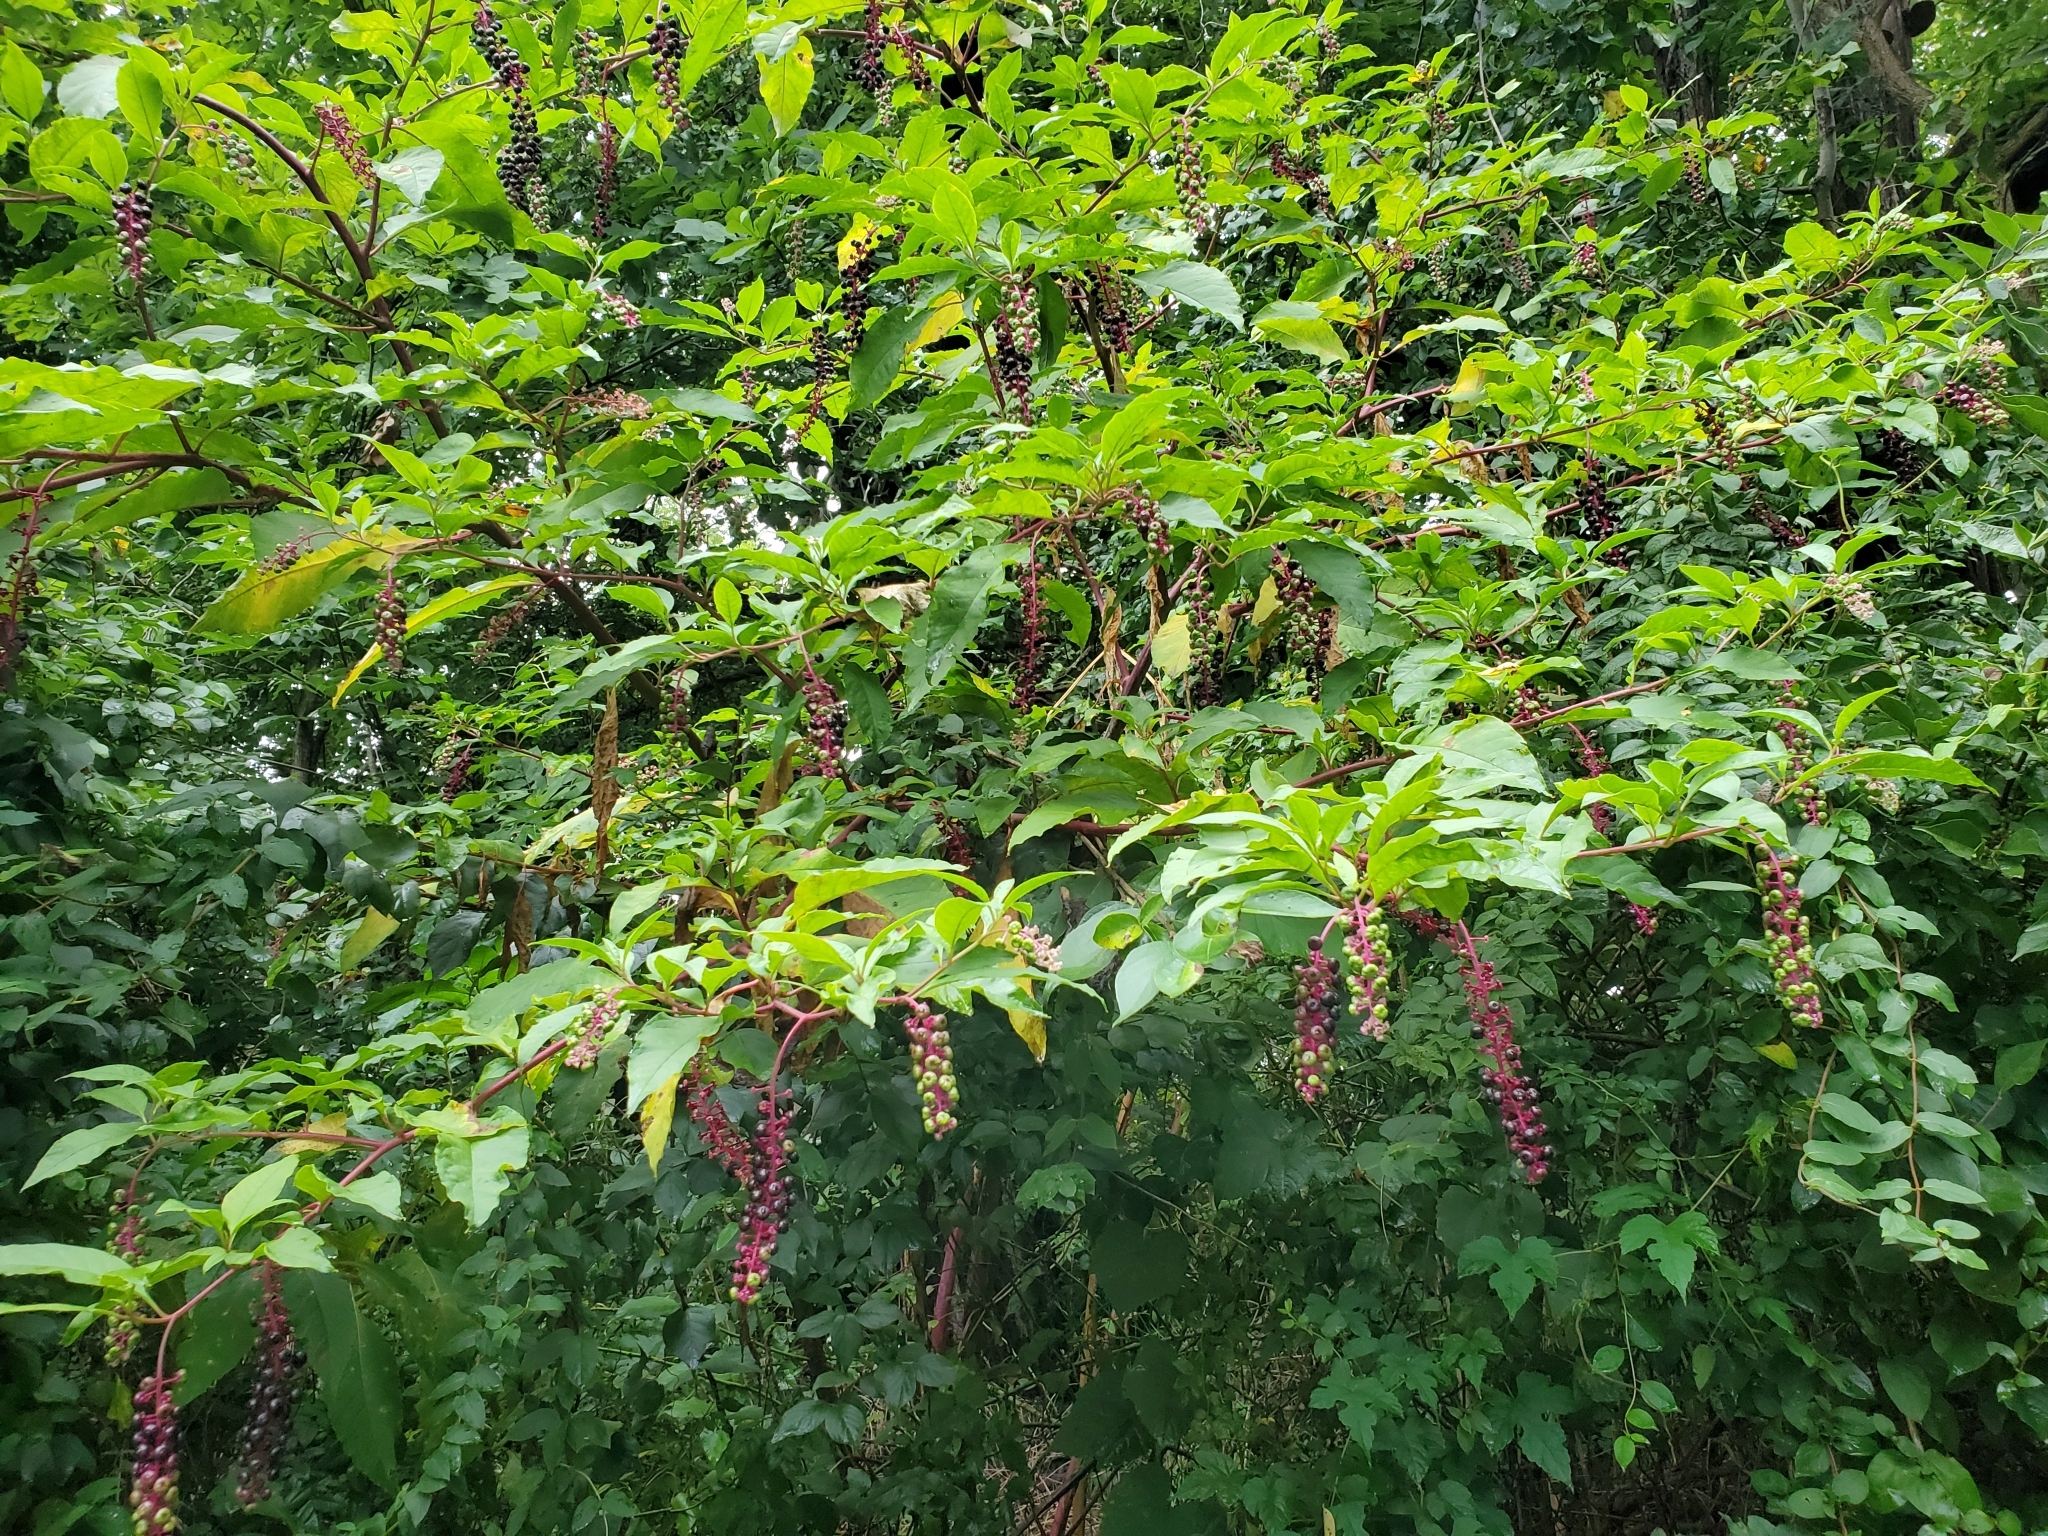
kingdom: Plantae
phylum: Tracheophyta
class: Magnoliopsida
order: Caryophyllales
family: Phytolaccaceae
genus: Phytolacca
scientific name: Phytolacca americana
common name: American pokeweed
